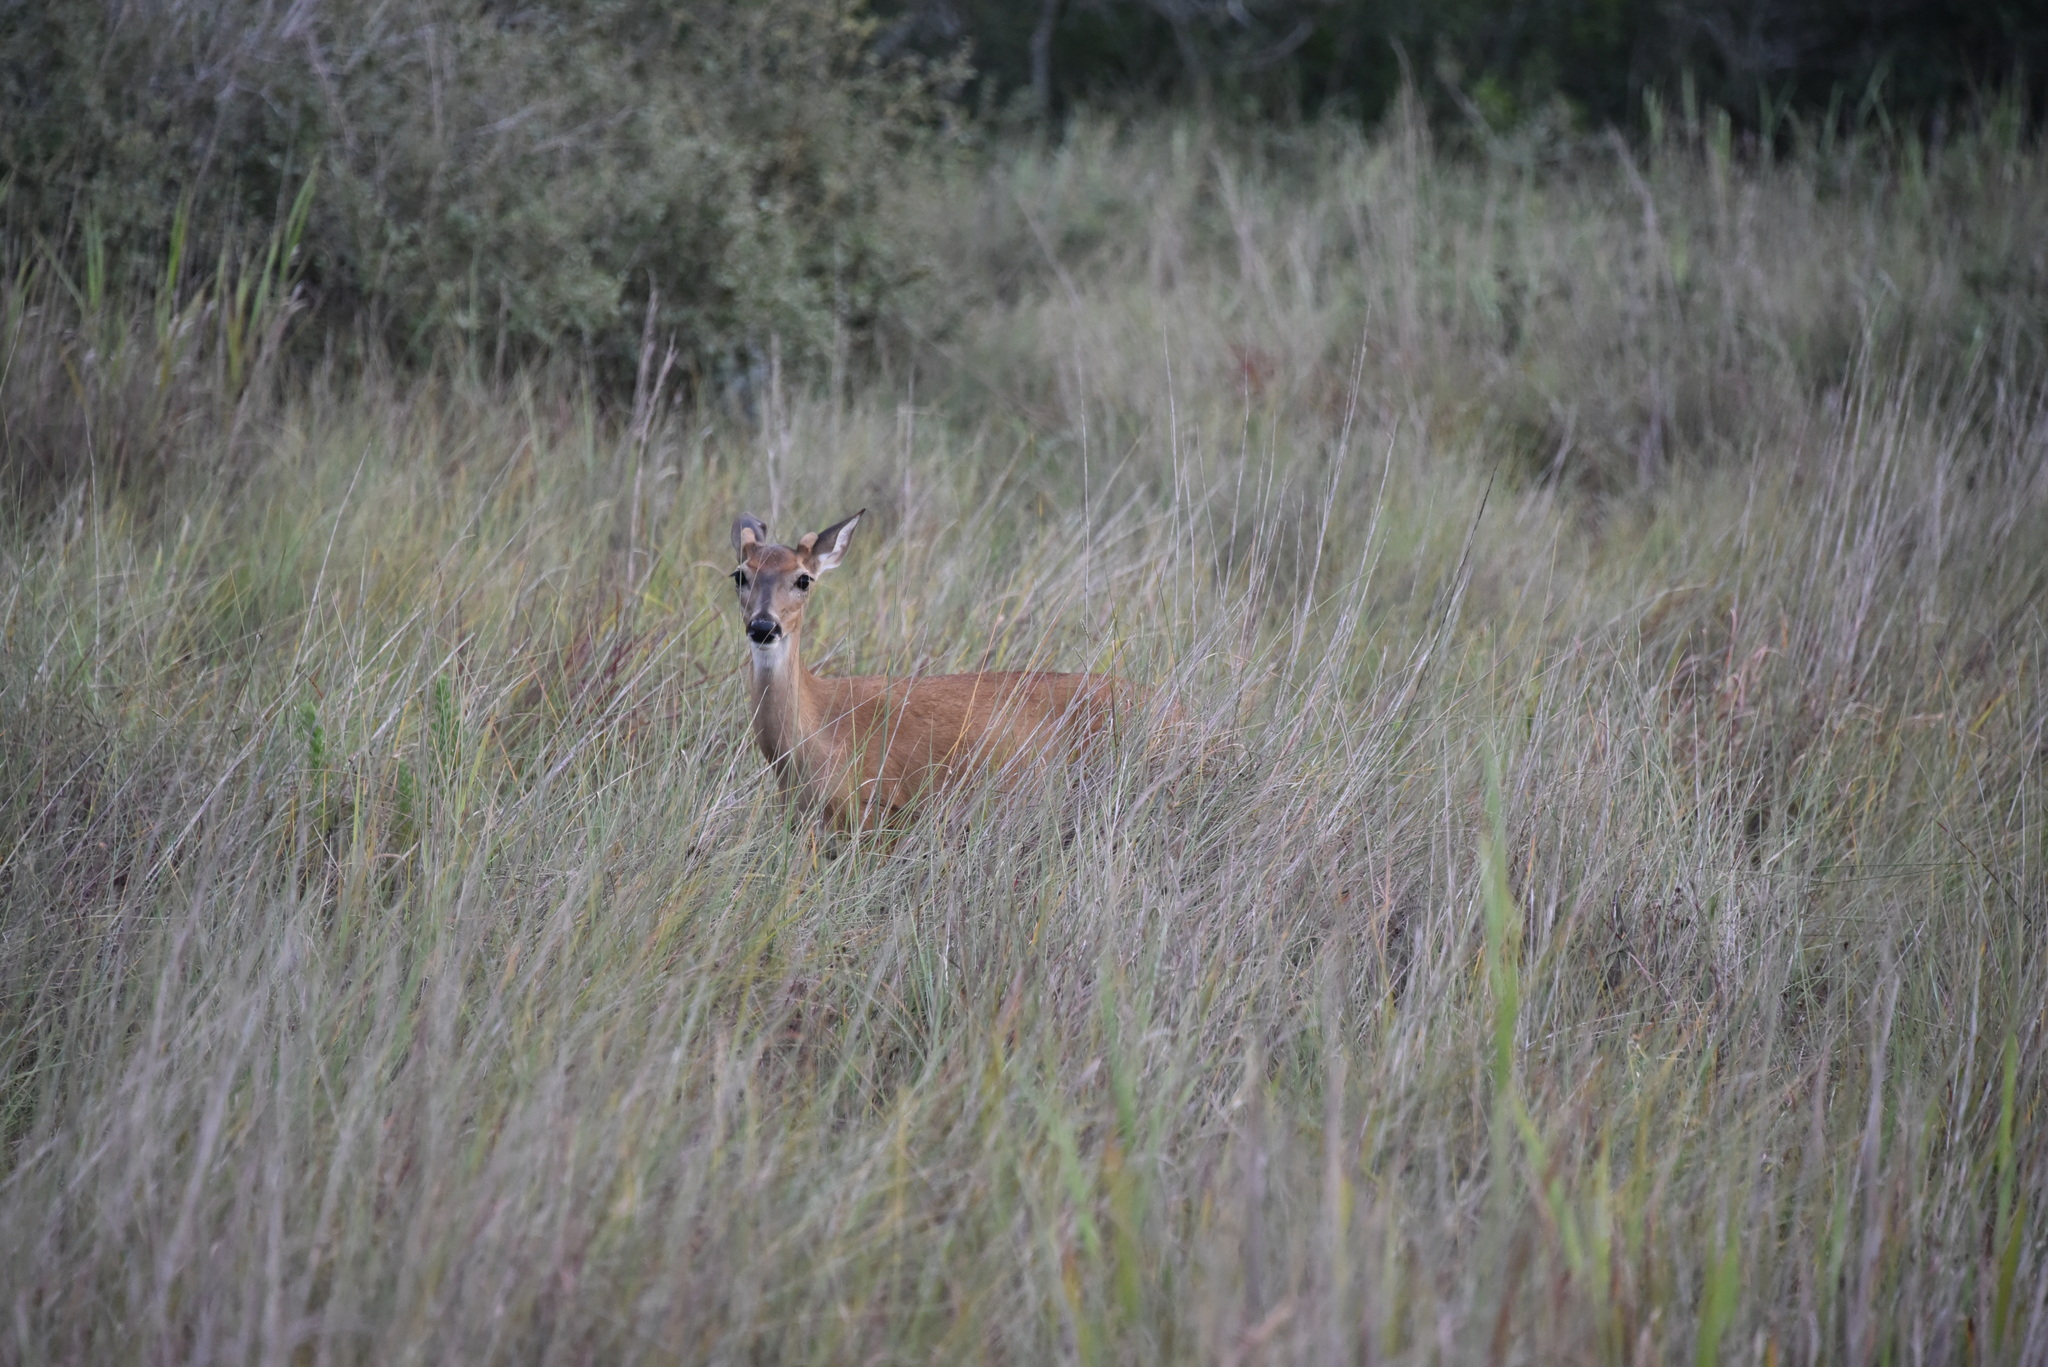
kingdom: Animalia
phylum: Chordata
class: Mammalia
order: Artiodactyla
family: Cervidae
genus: Odocoileus
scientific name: Odocoileus virginianus
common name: White-tailed deer
